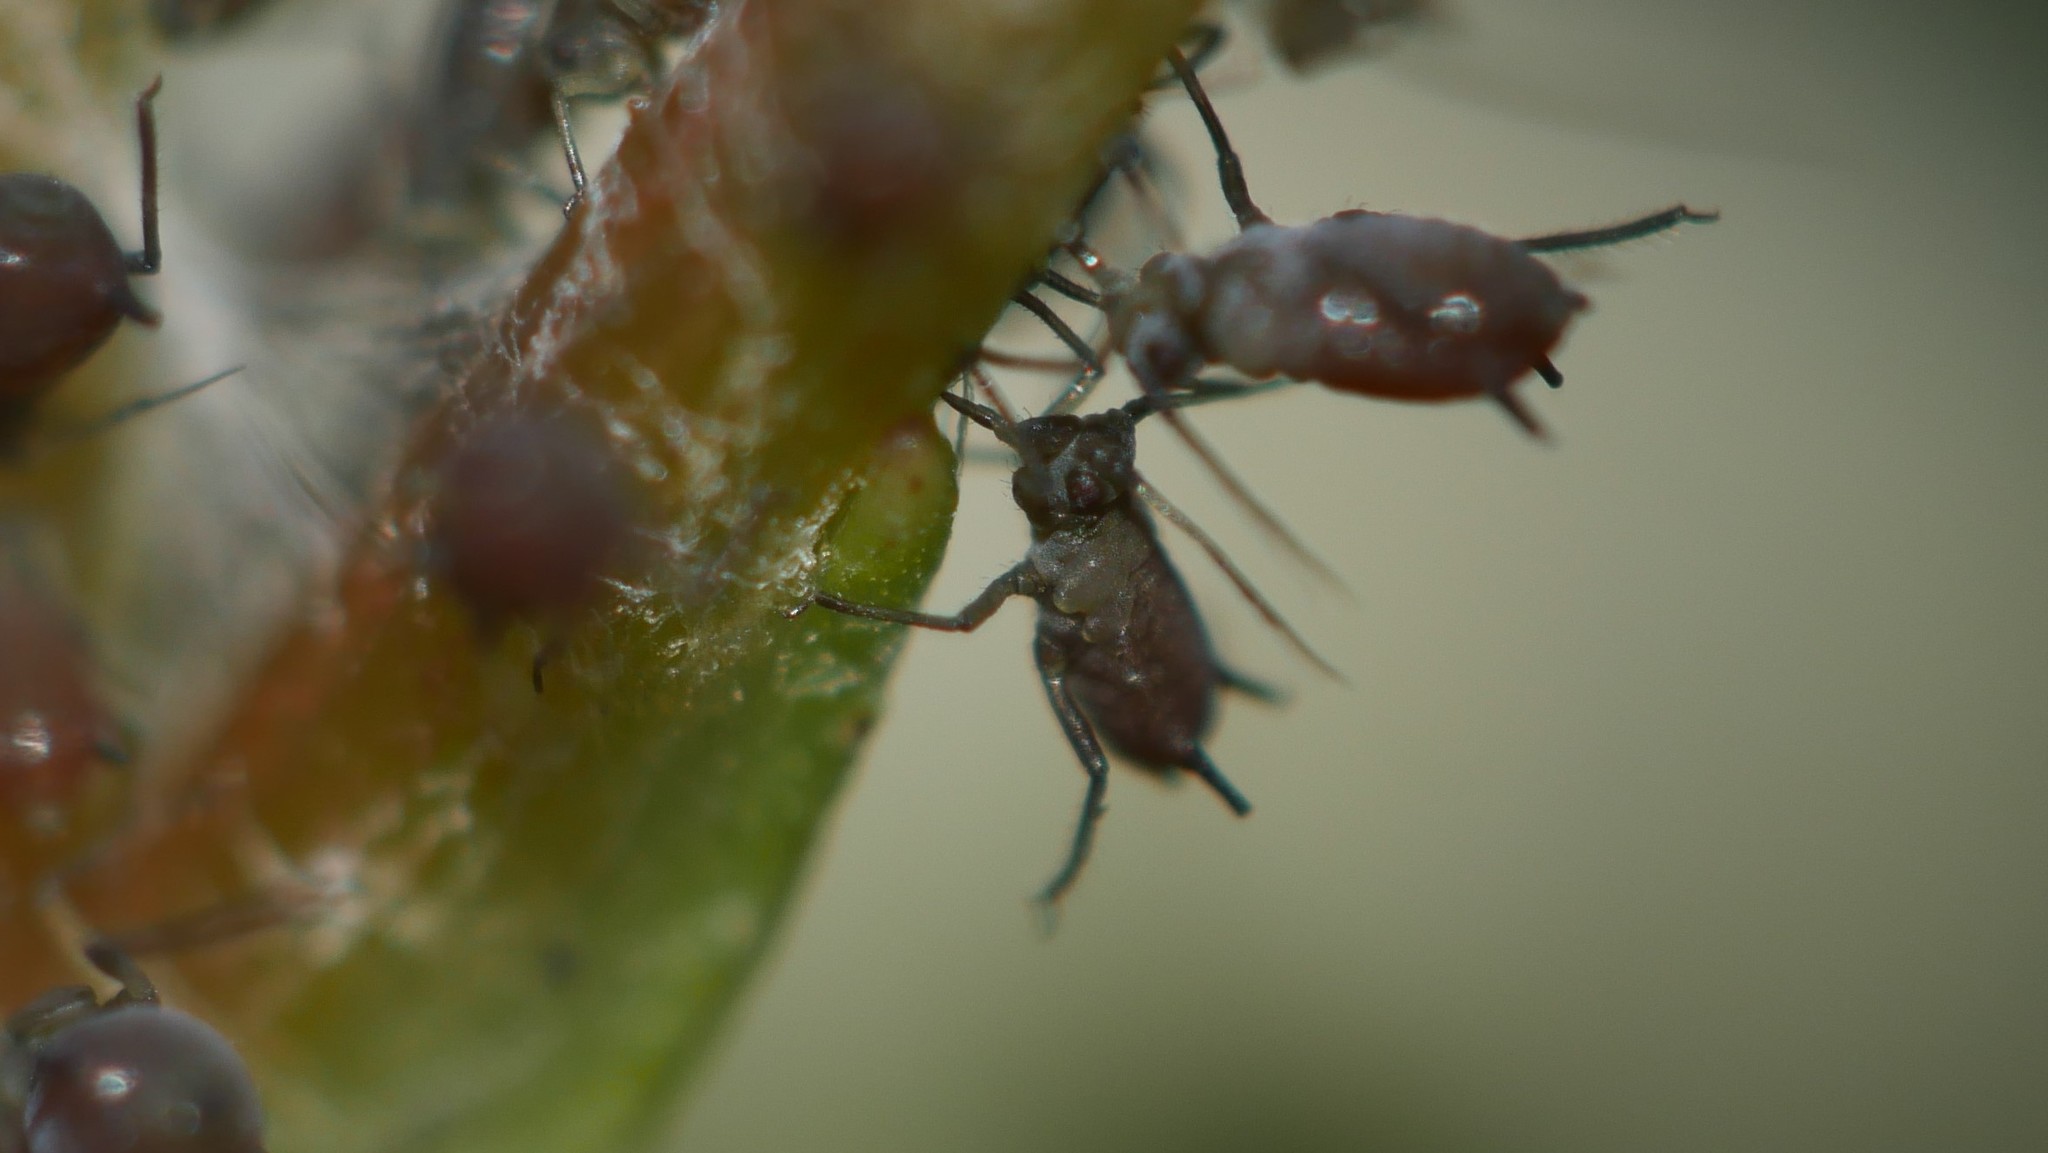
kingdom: Animalia
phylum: Arthropoda
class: Insecta
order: Hemiptera
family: Aphididae
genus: Aphis
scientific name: Aphis illinoisensis
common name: Grapevine aphid
